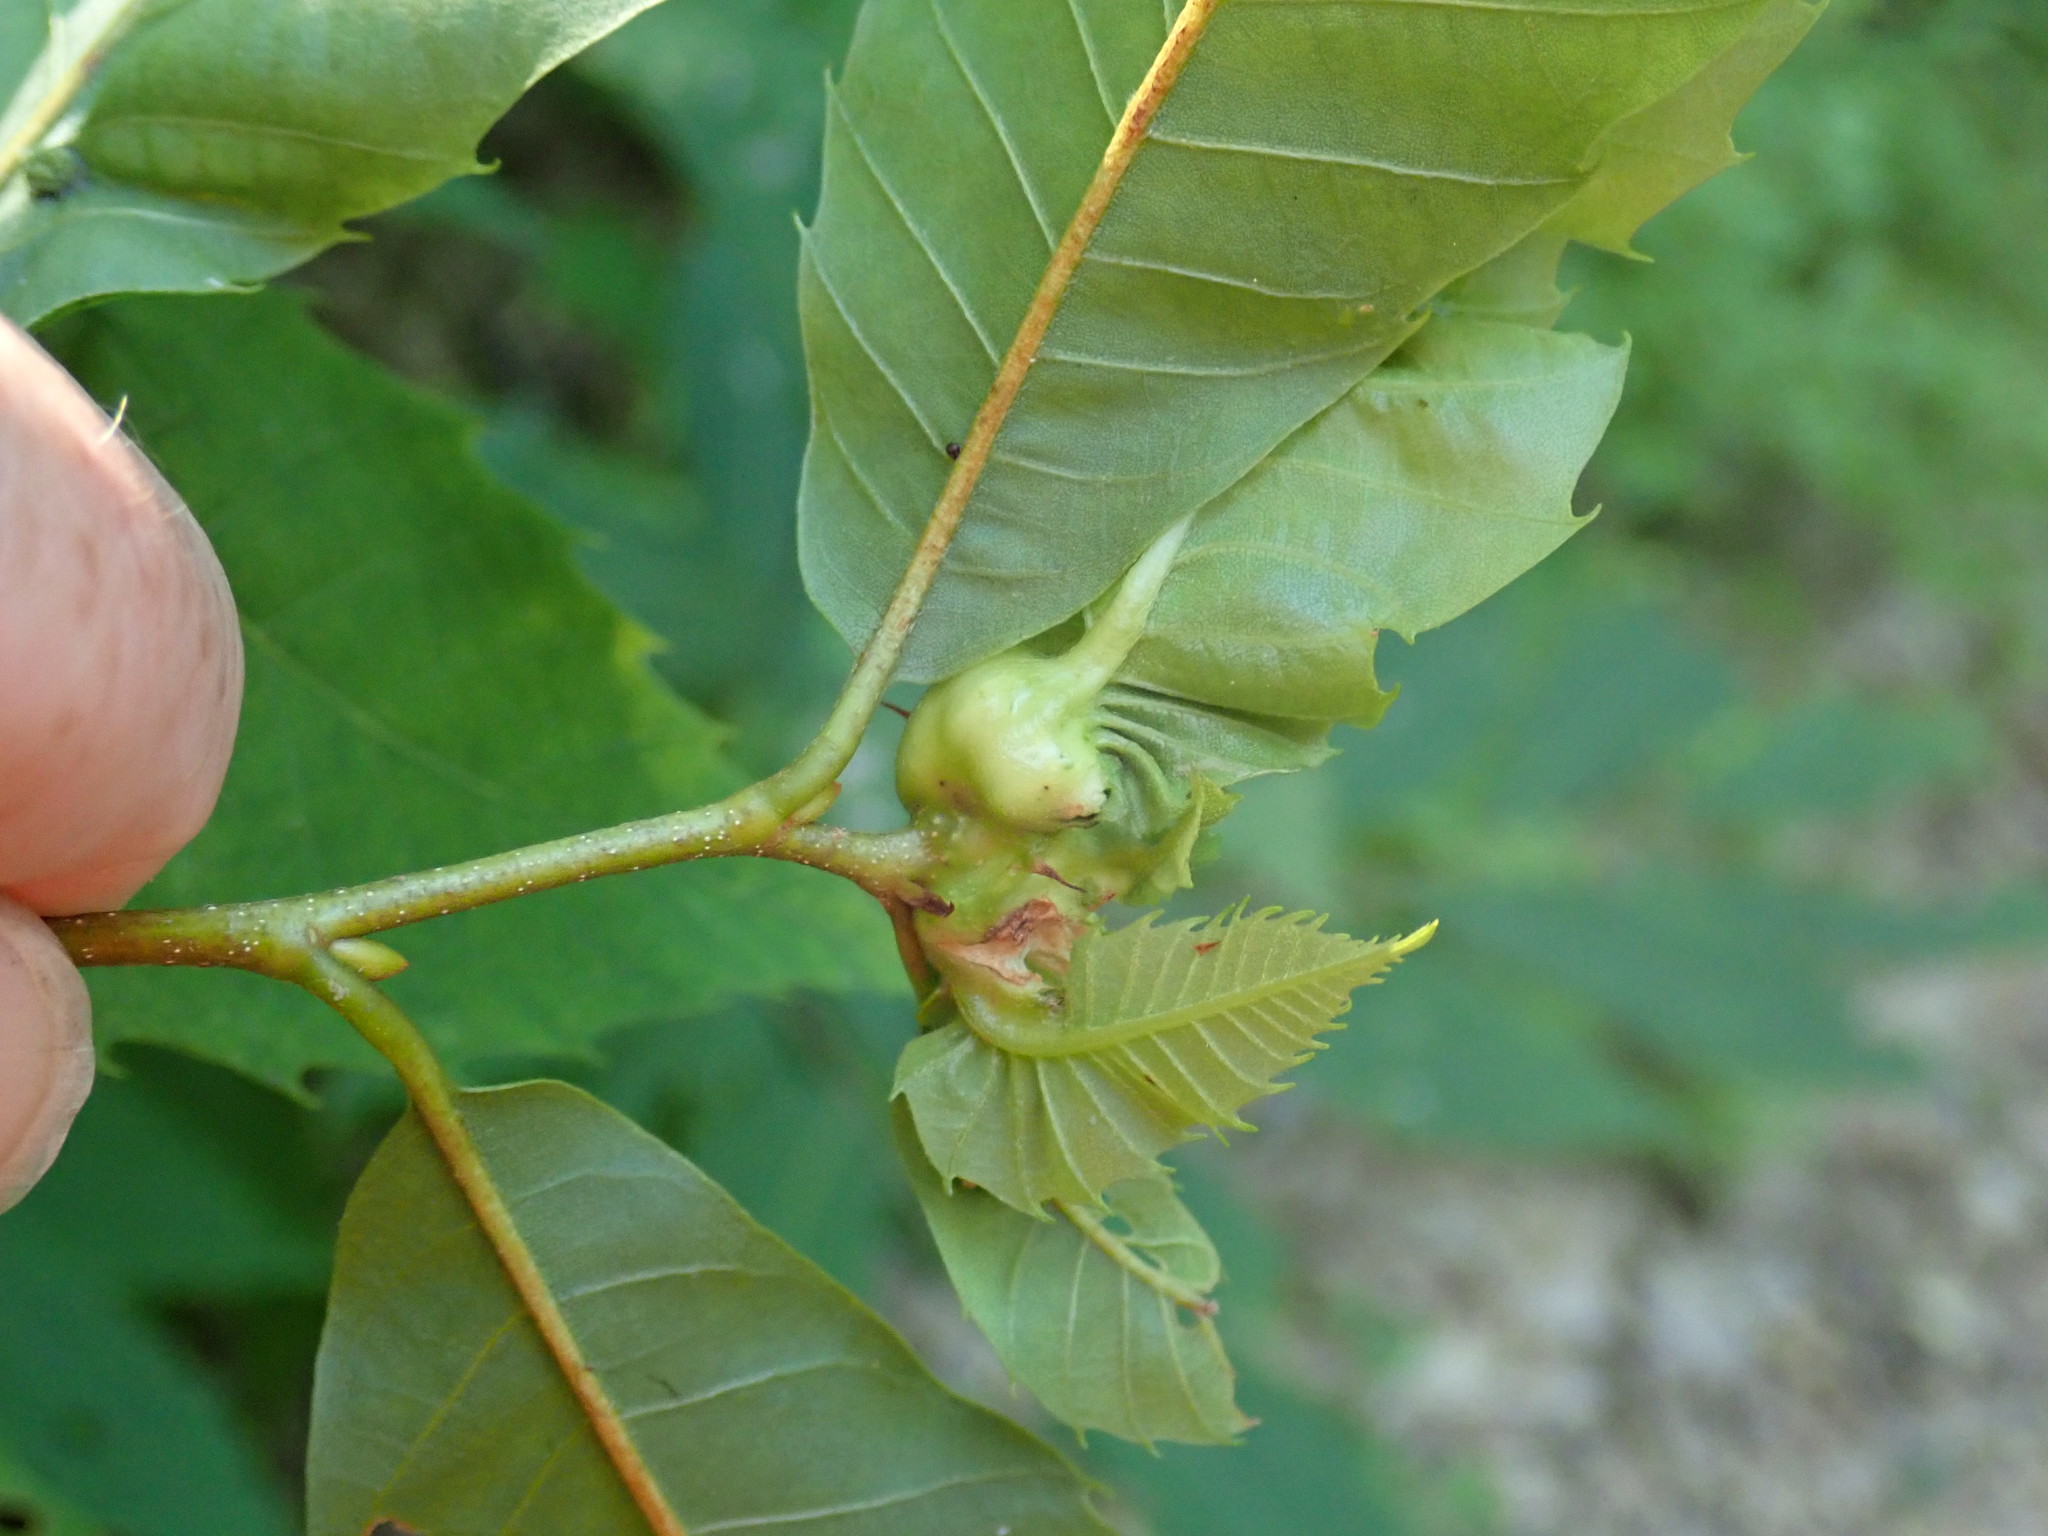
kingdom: Animalia
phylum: Arthropoda
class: Insecta
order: Hymenoptera
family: Cynipidae
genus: Dryocosmus
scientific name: Dryocosmus kuriphilus
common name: Asian chestnut gall wasp
